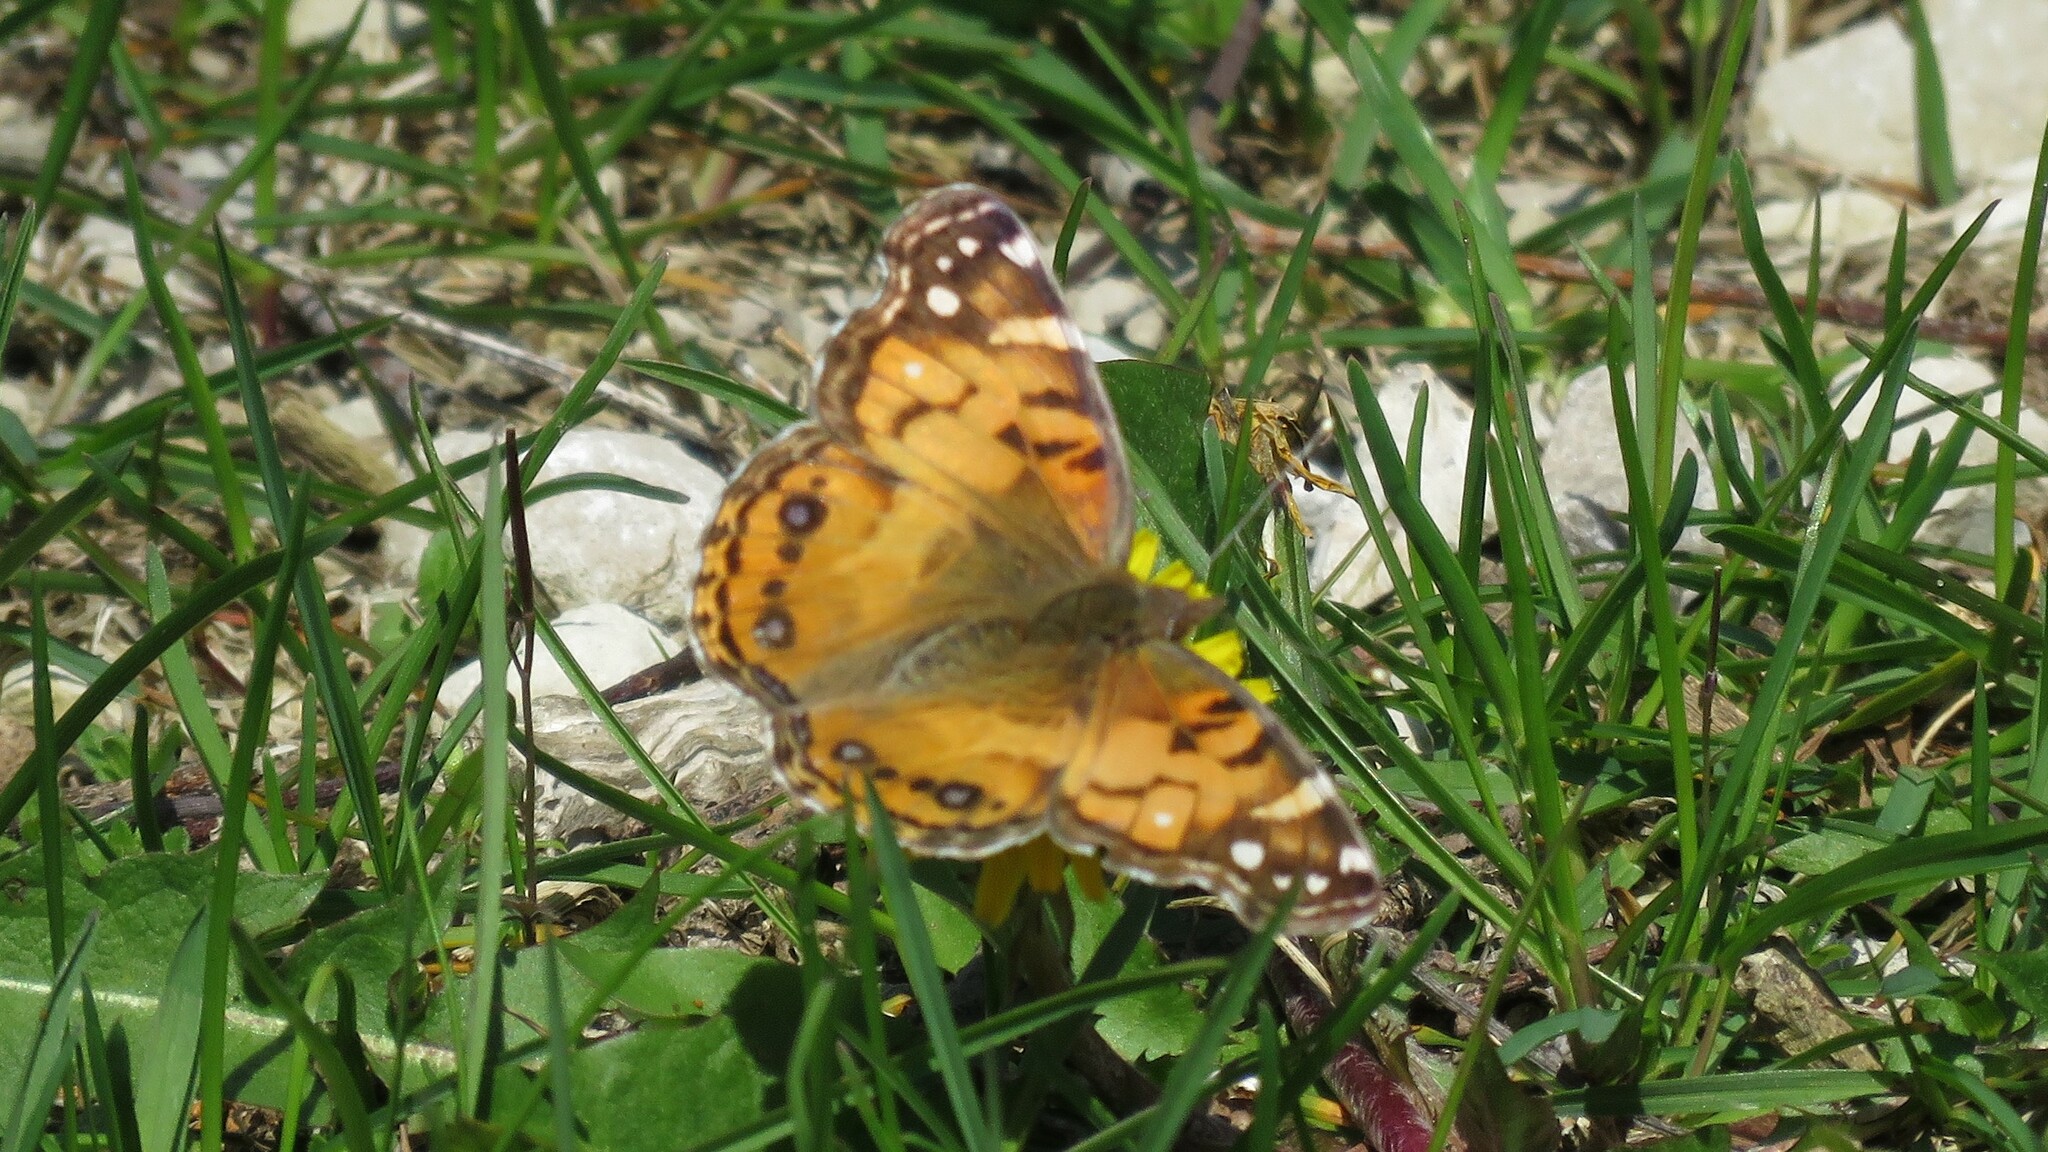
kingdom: Animalia
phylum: Arthropoda
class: Insecta
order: Lepidoptera
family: Nymphalidae
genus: Vanessa
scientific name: Vanessa virginiensis
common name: American lady
